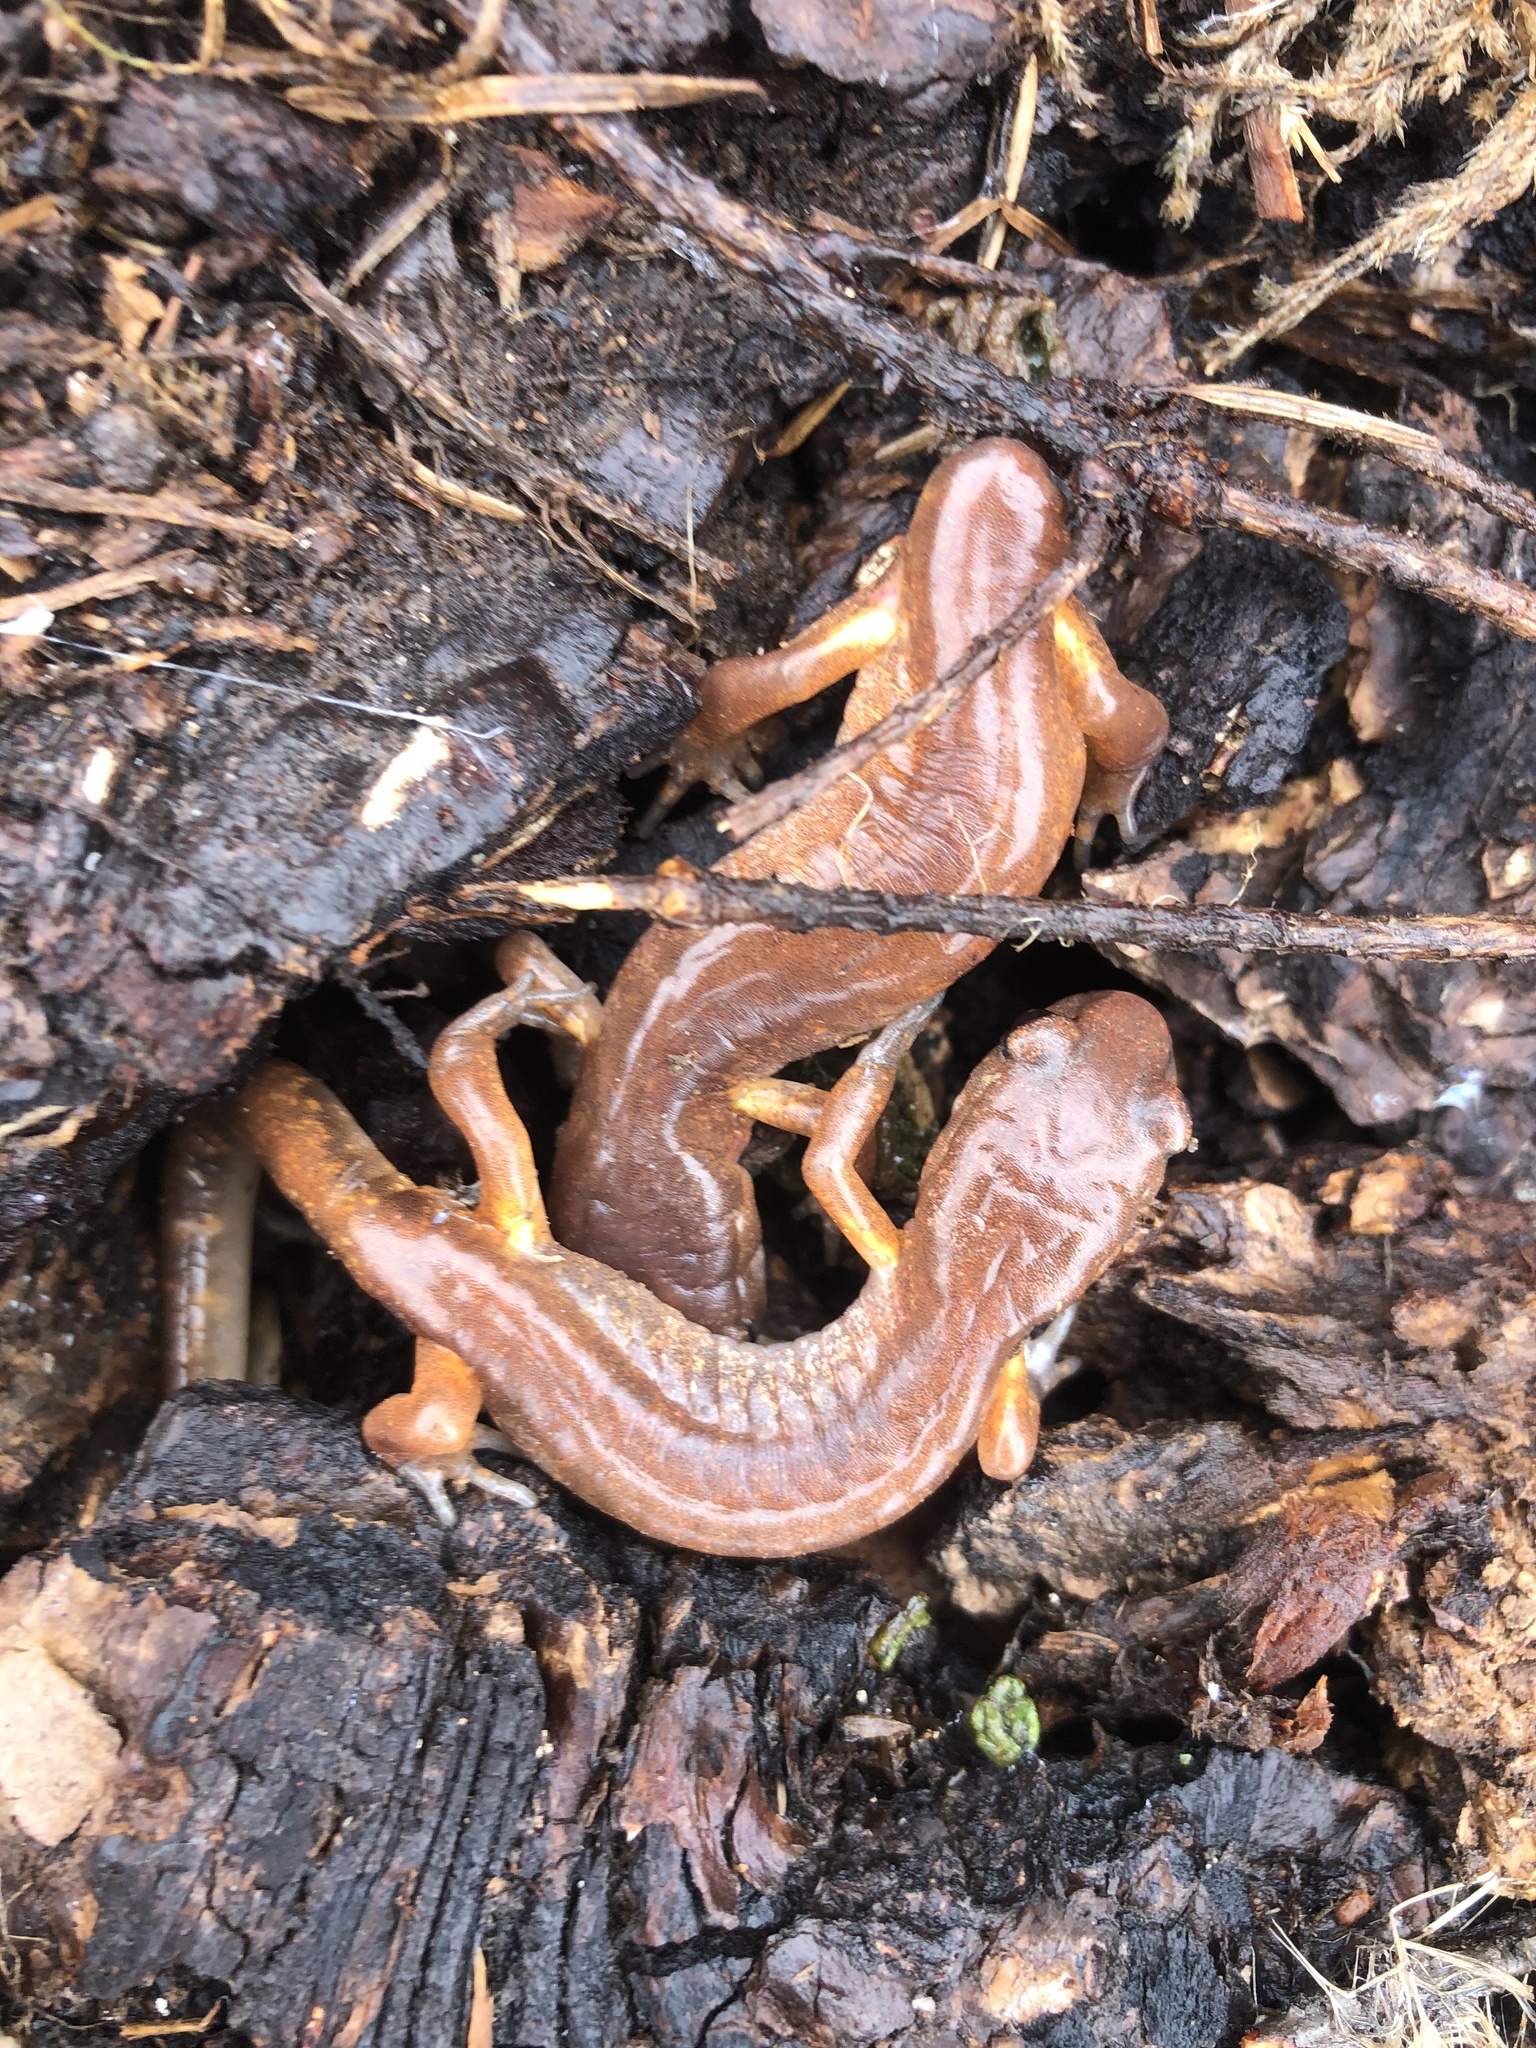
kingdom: Animalia
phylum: Chordata
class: Amphibia
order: Caudata
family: Plethodontidae
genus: Ensatina
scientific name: Ensatina eschscholtzii
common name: Ensatina
